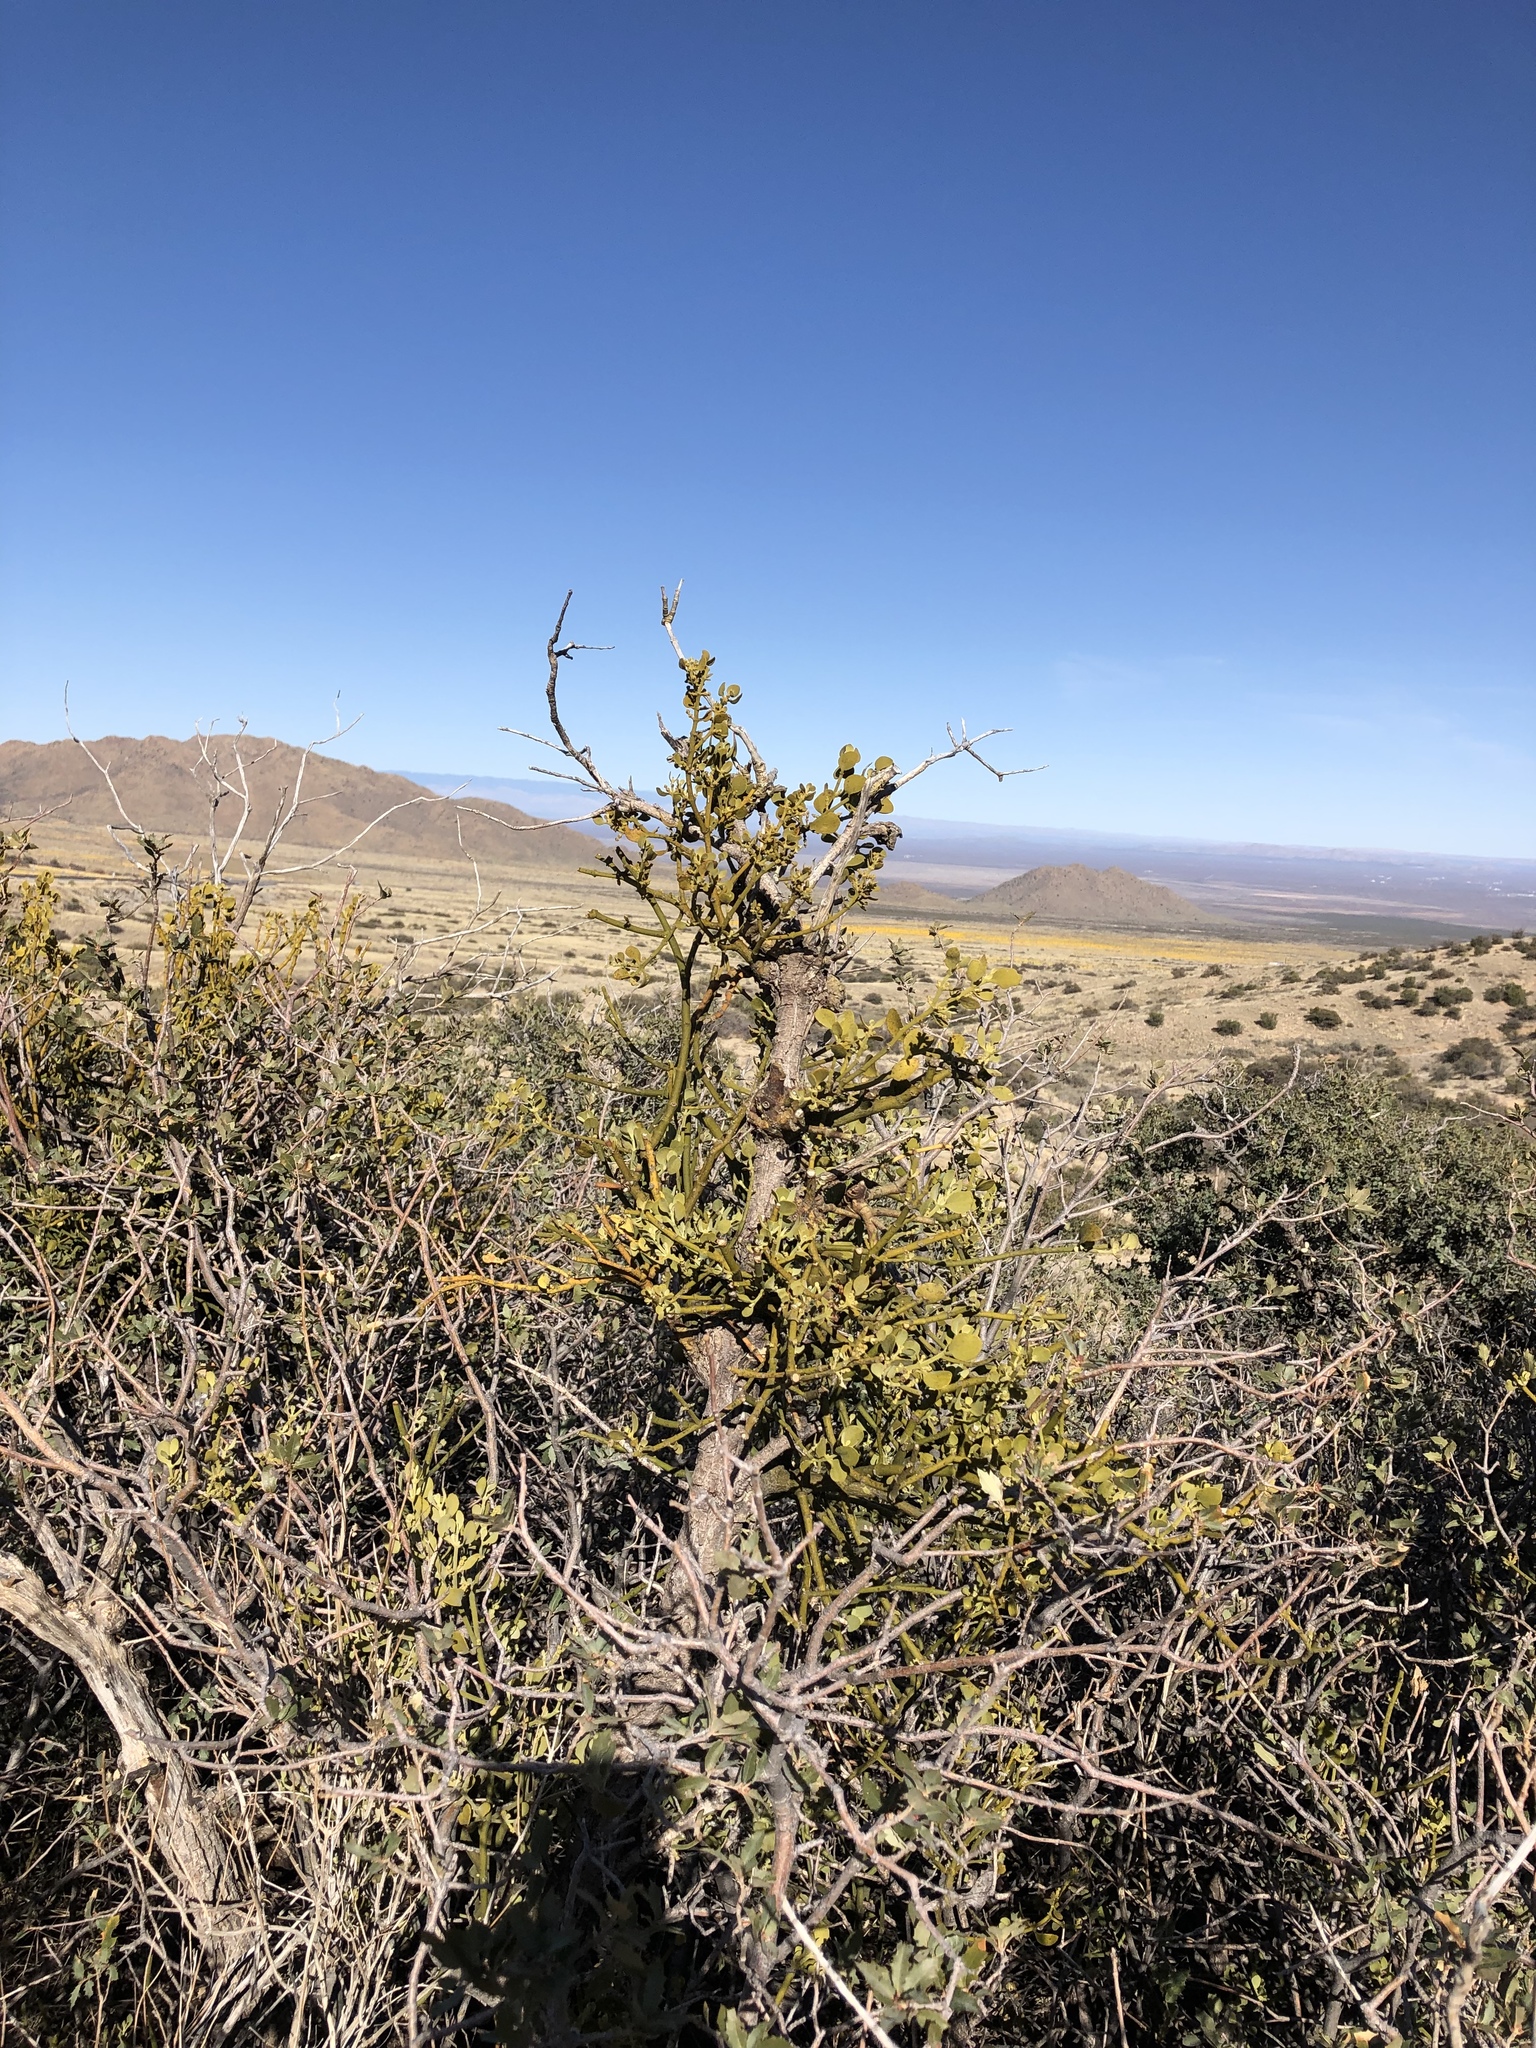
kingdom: Plantae
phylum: Tracheophyta
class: Magnoliopsida
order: Santalales
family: Viscaceae
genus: Phoradendron
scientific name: Phoradendron coryae
